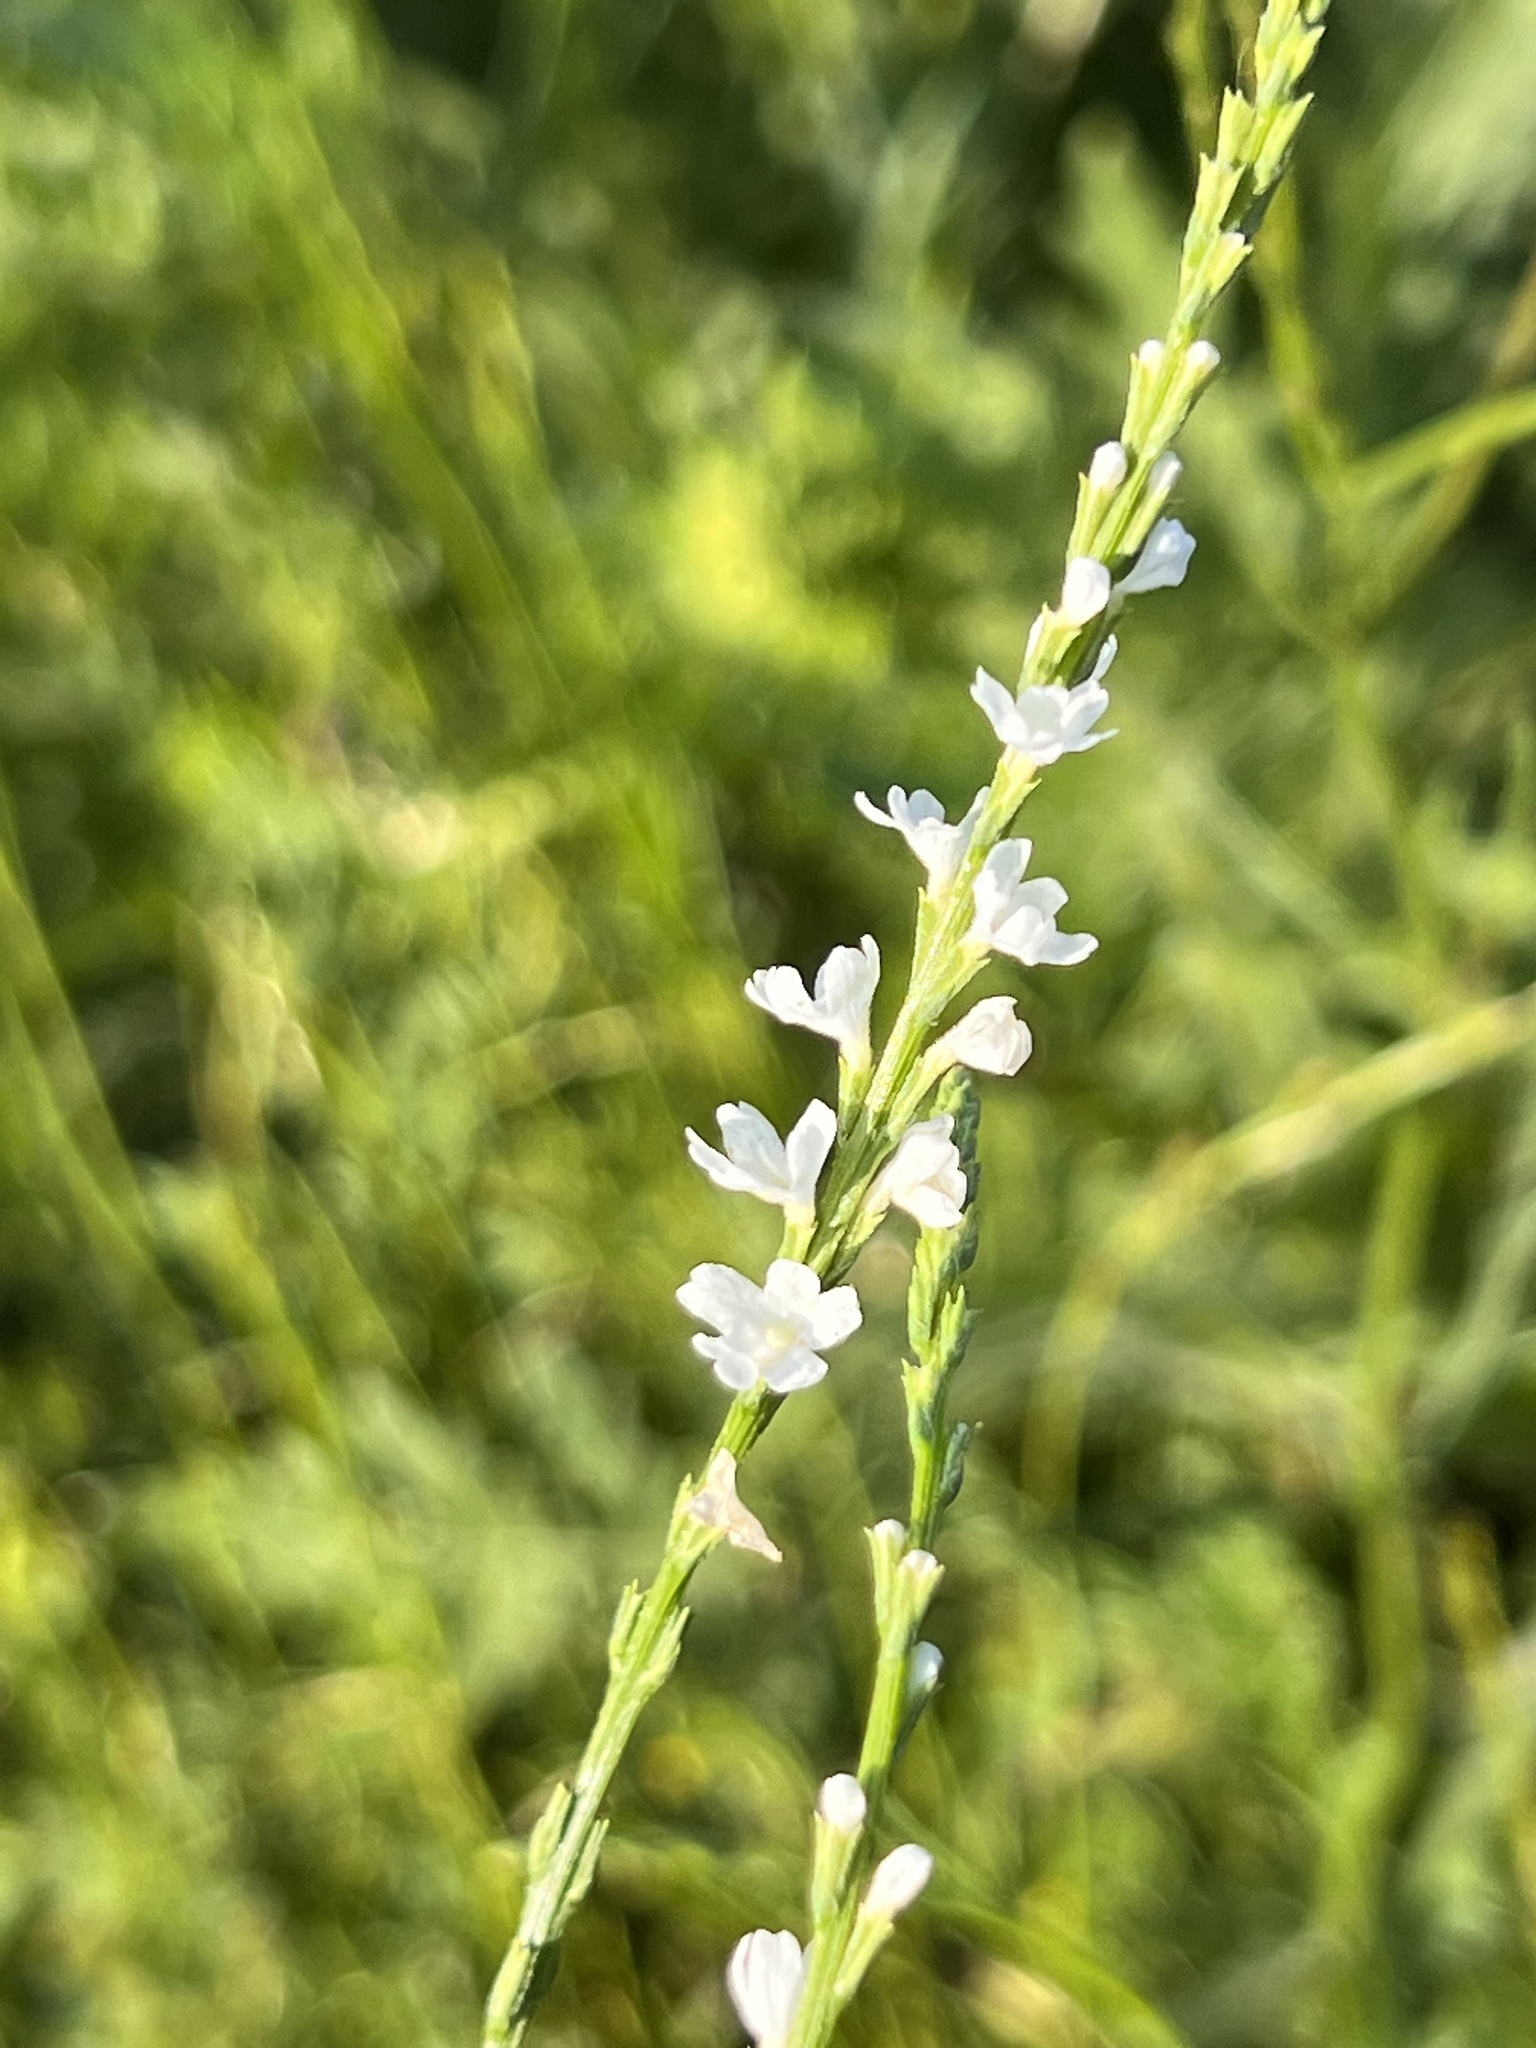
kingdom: Plantae
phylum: Tracheophyta
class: Magnoliopsida
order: Lamiales
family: Verbenaceae
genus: Verbena
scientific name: Verbena halei
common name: Texas vervain
